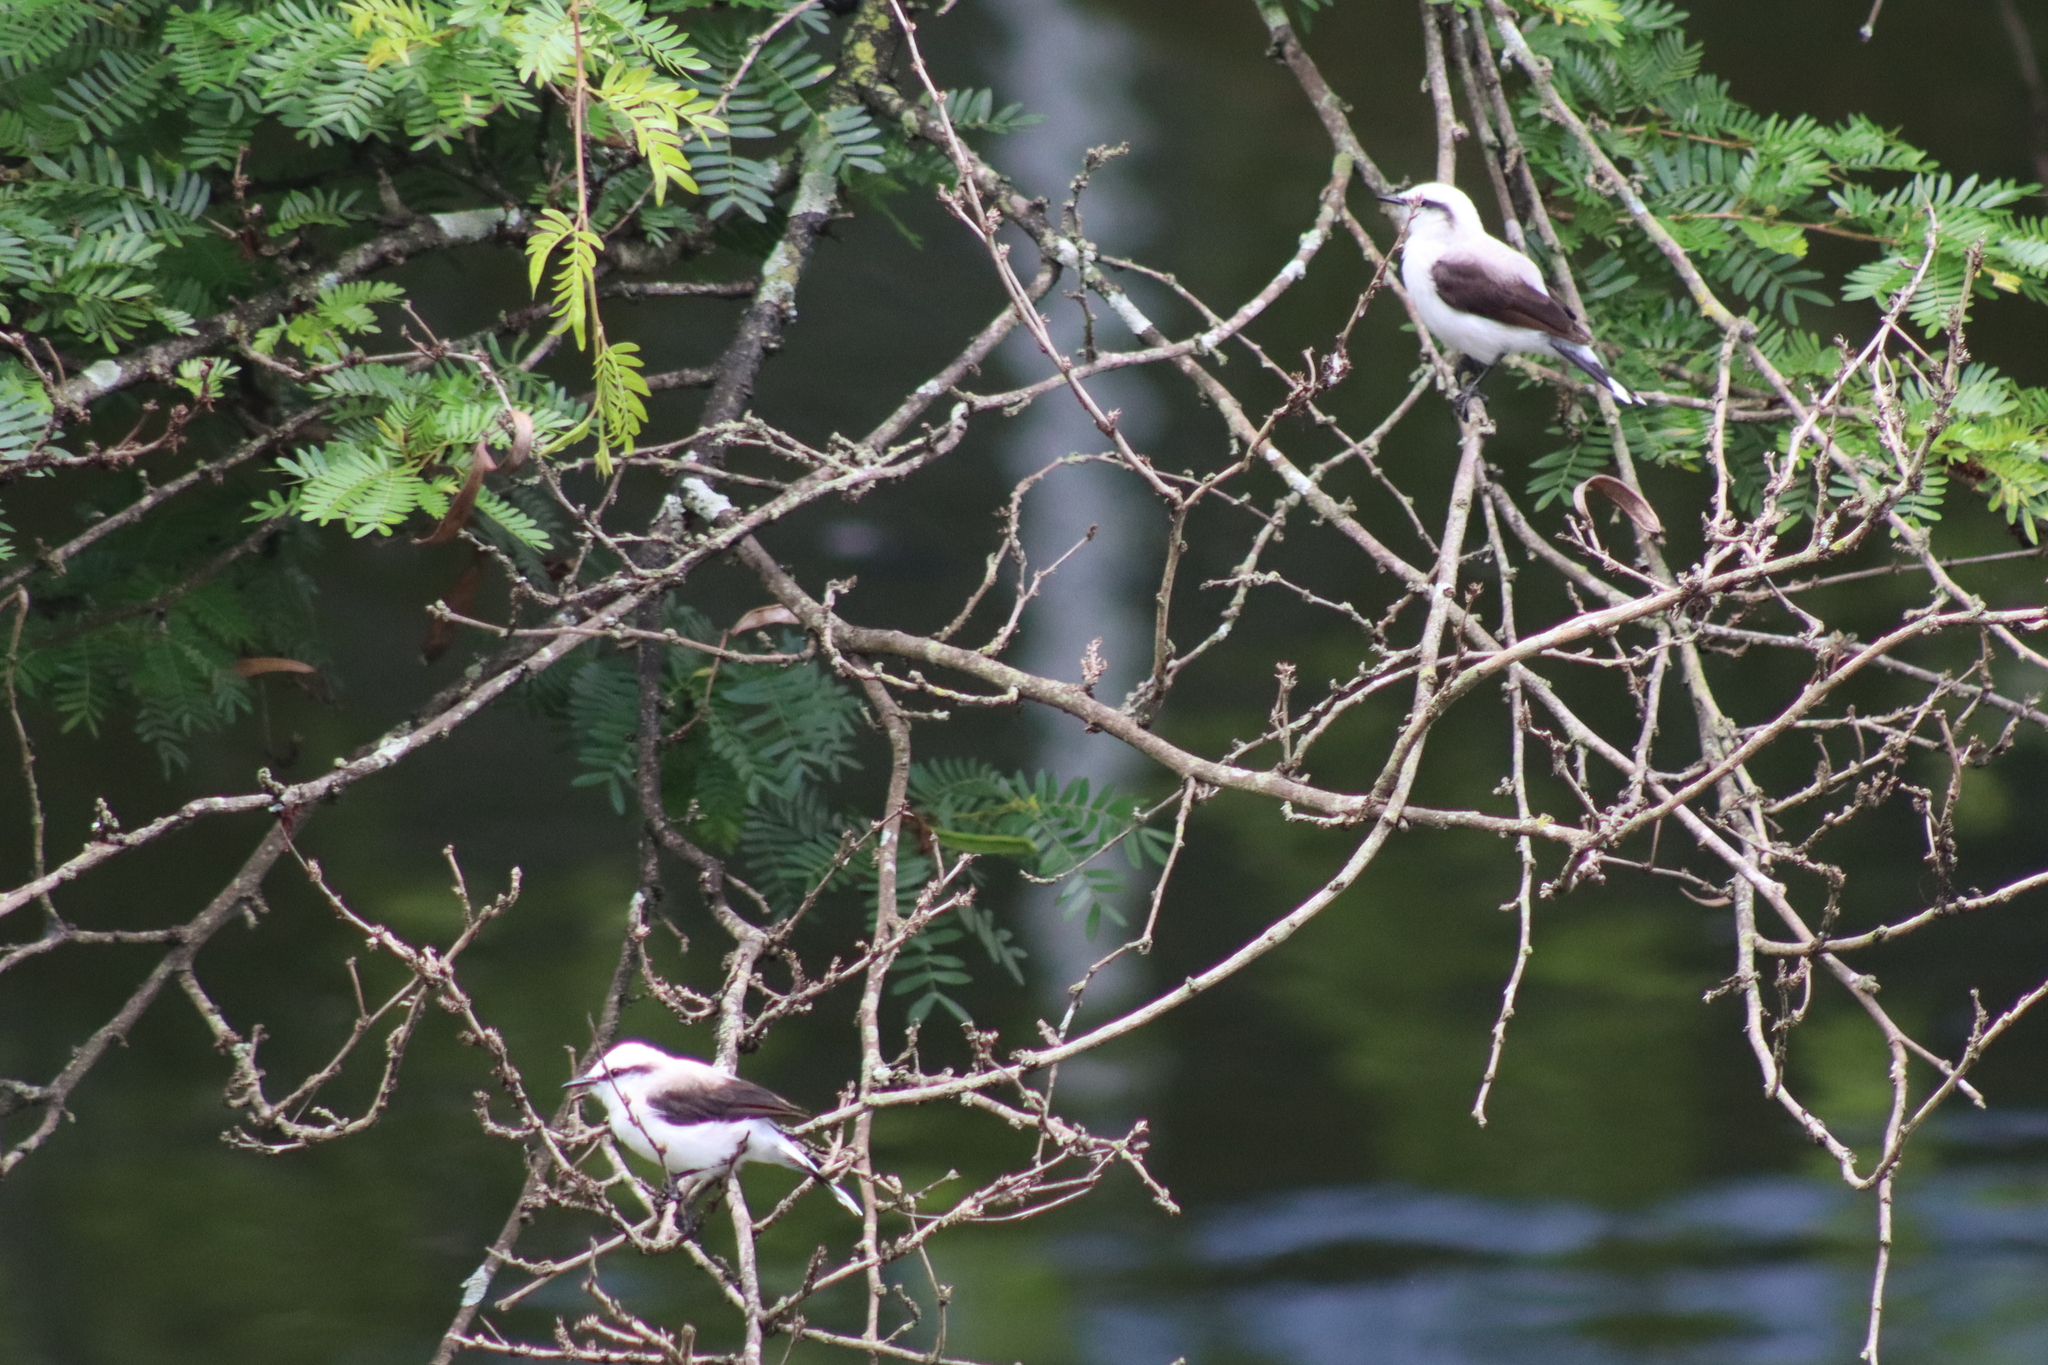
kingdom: Animalia
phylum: Chordata
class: Aves
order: Passeriformes
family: Tyrannidae
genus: Fluvicola
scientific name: Fluvicola nengeta
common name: Masked water tyrant
